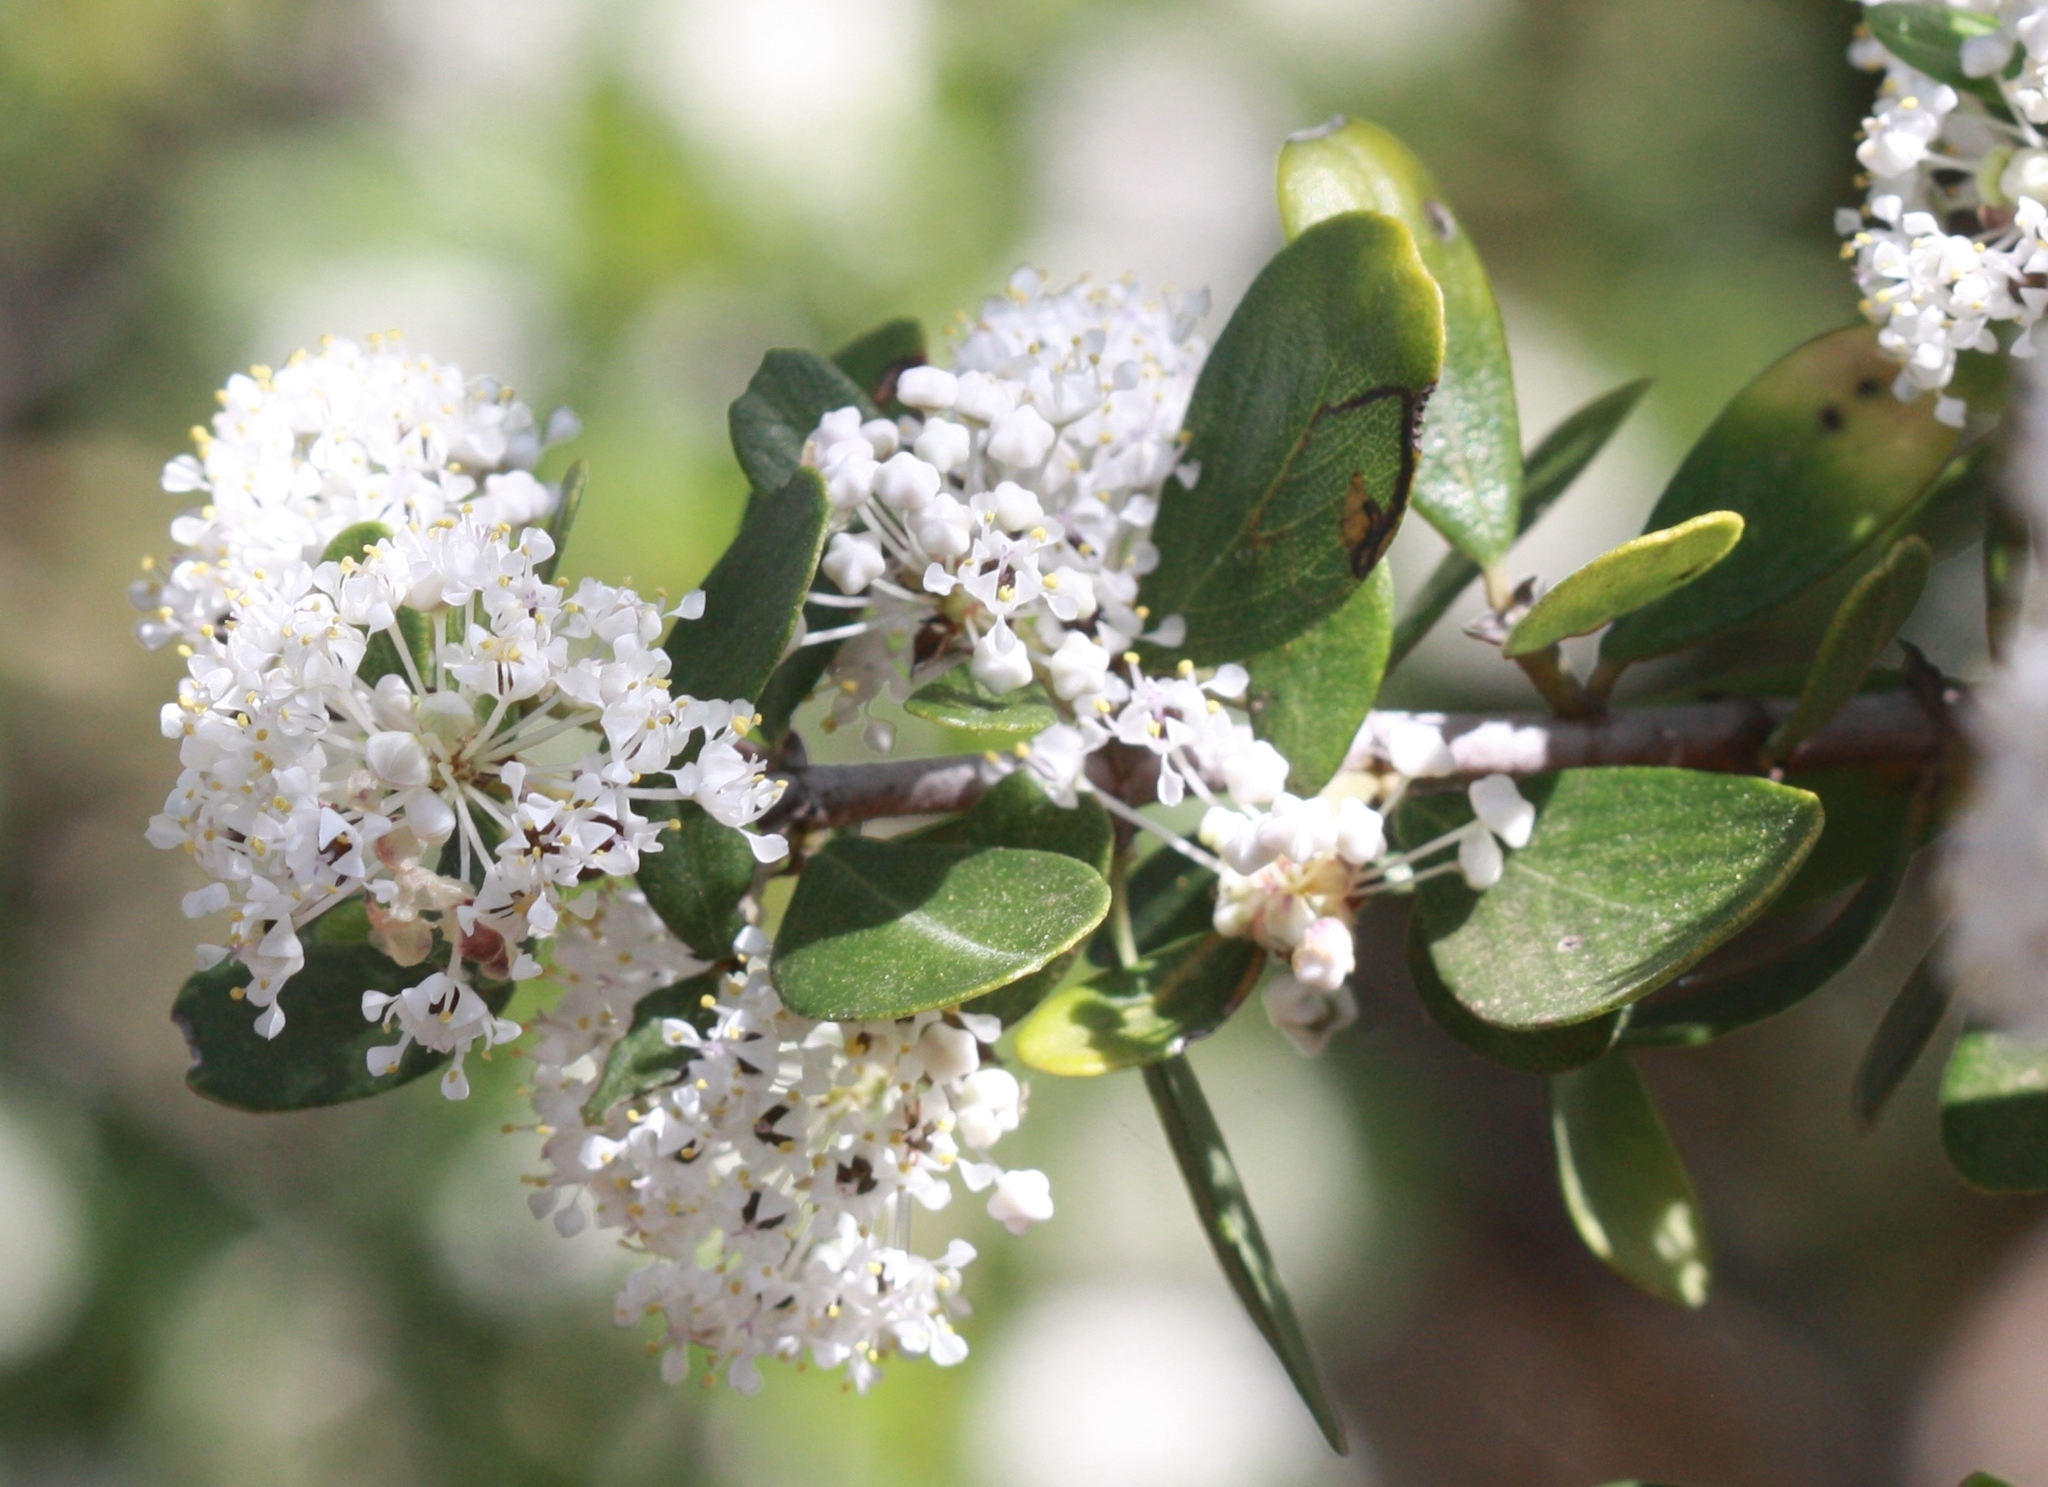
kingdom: Plantae
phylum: Tracheophyta
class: Magnoliopsida
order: Rosales
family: Rhamnaceae
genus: Ceanothus
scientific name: Ceanothus cuneatus
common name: Cuneate ceanothus
